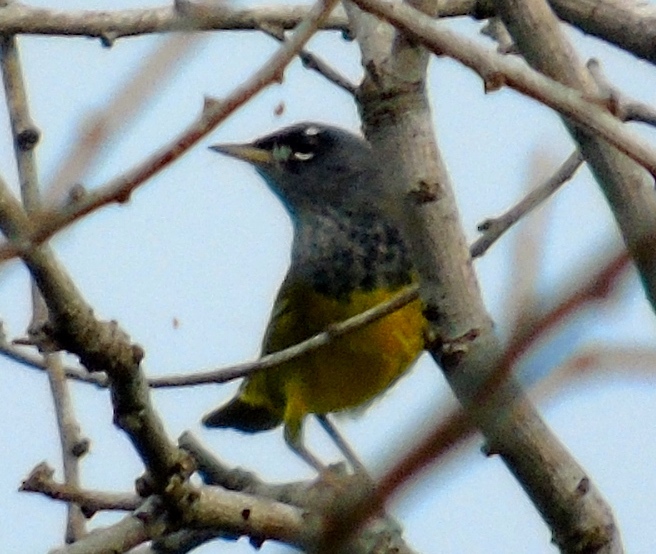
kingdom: Animalia
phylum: Chordata
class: Aves
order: Passeriformes
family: Parulidae
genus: Geothlypis
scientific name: Geothlypis tolmiei
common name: Macgillivray's warbler
